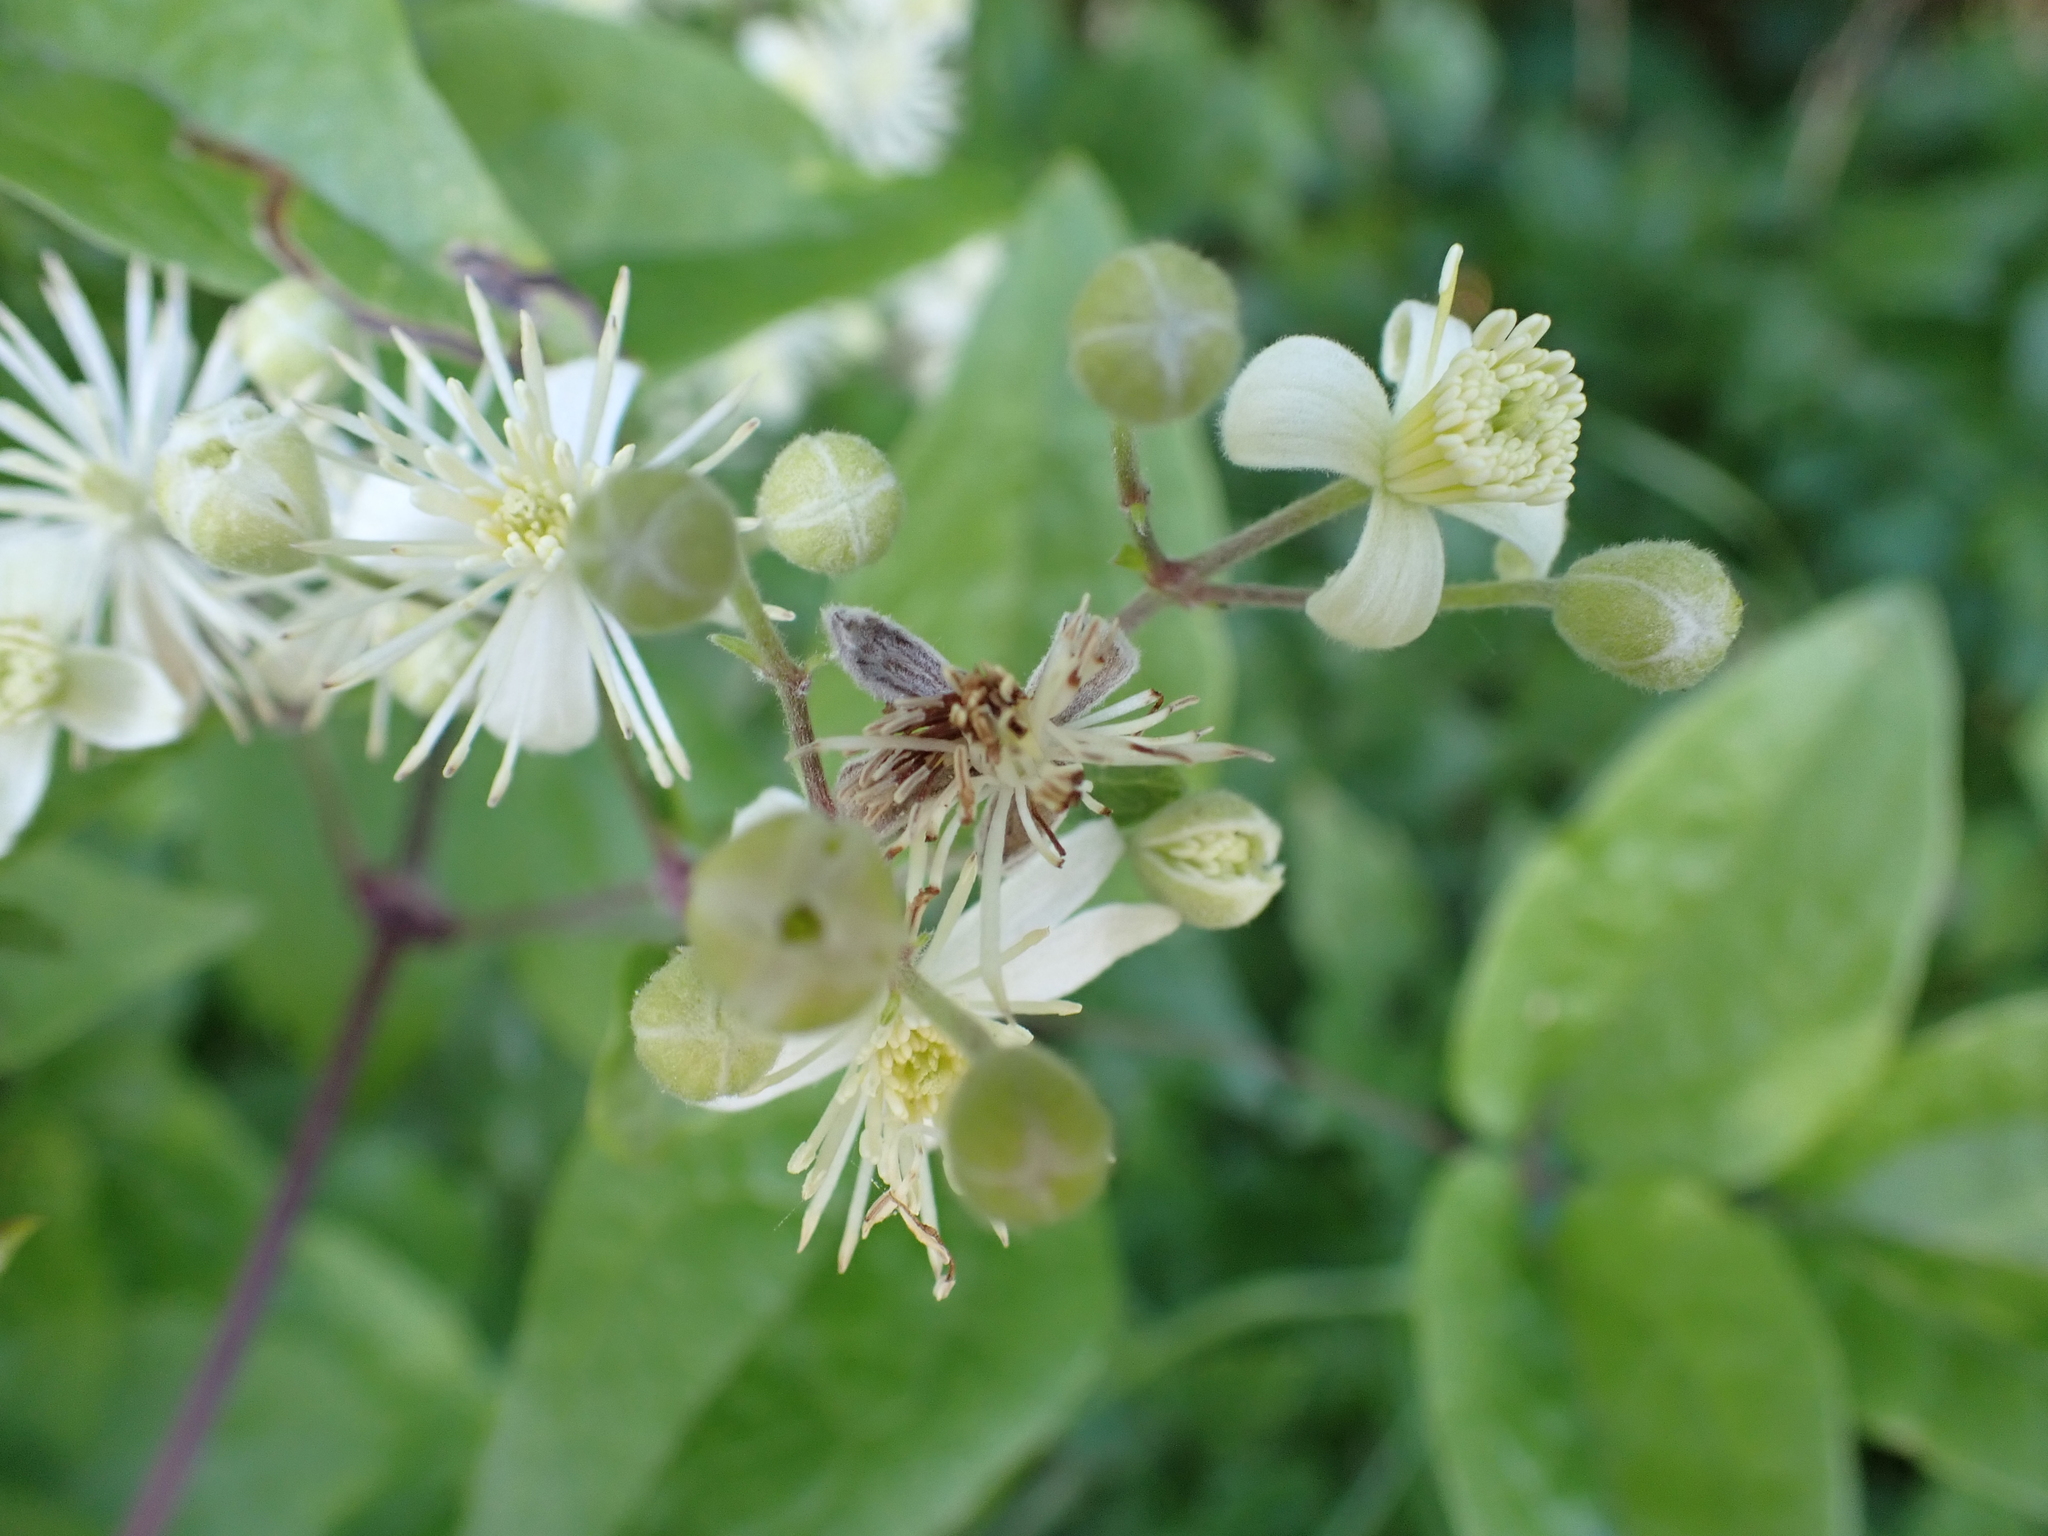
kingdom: Plantae
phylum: Tracheophyta
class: Magnoliopsida
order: Ranunculales
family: Ranunculaceae
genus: Clematis
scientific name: Clematis vitalba
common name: Evergreen clematis
